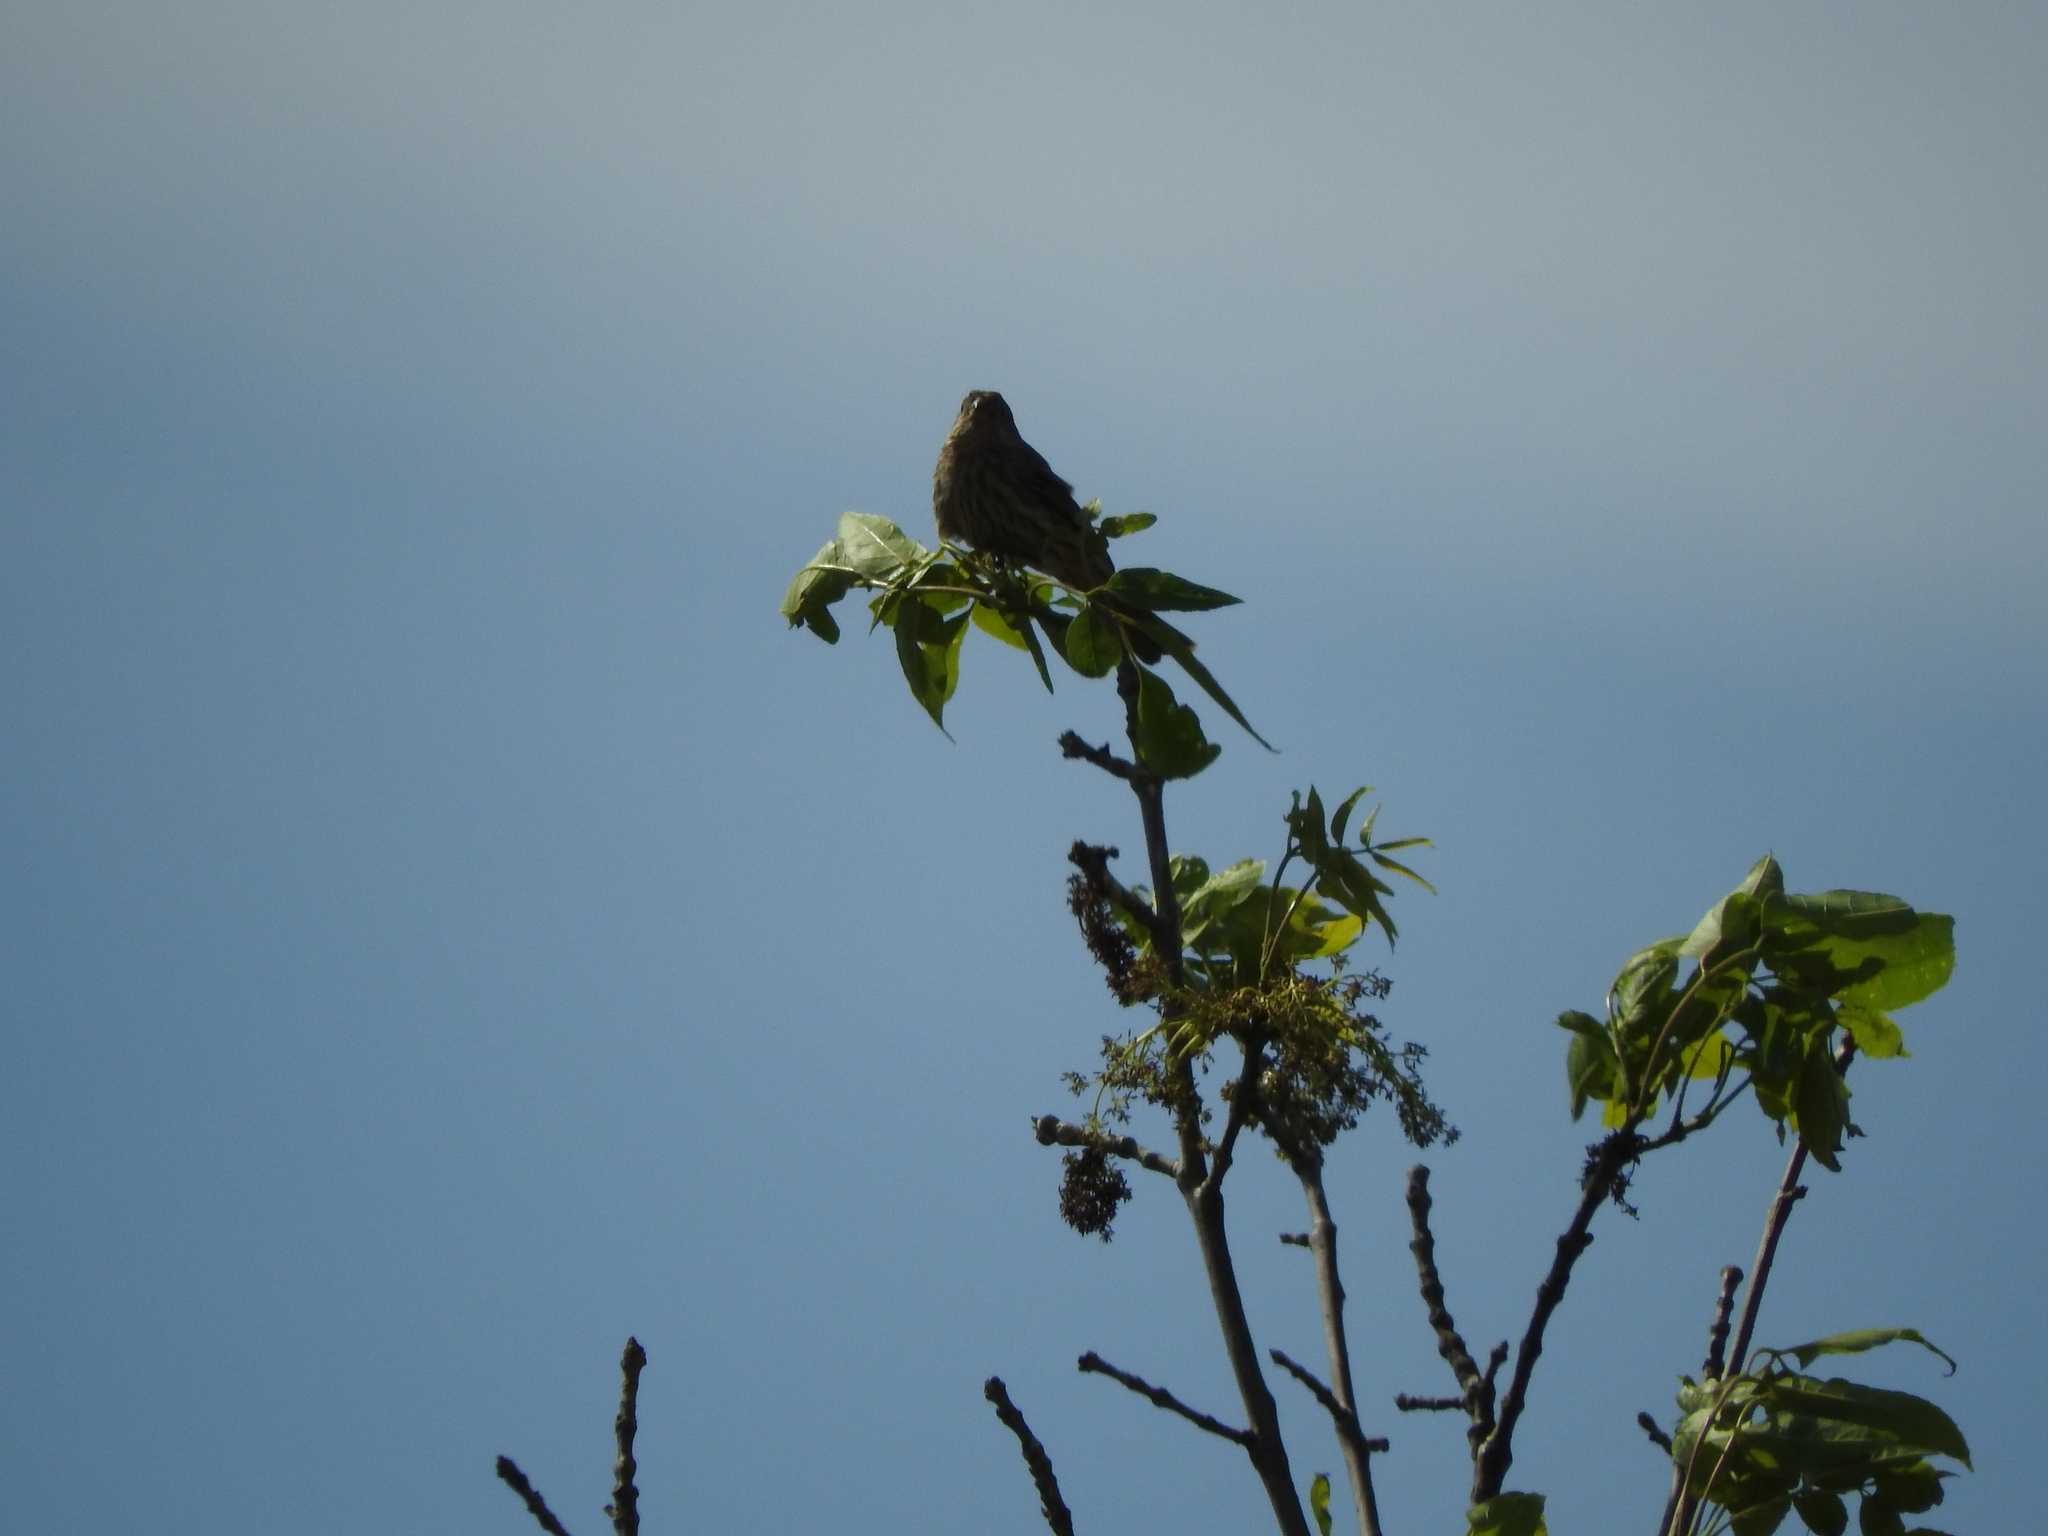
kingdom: Animalia
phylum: Chordata
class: Aves
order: Passeriformes
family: Fringillidae
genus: Haemorhous
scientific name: Haemorhous mexicanus
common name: House finch
